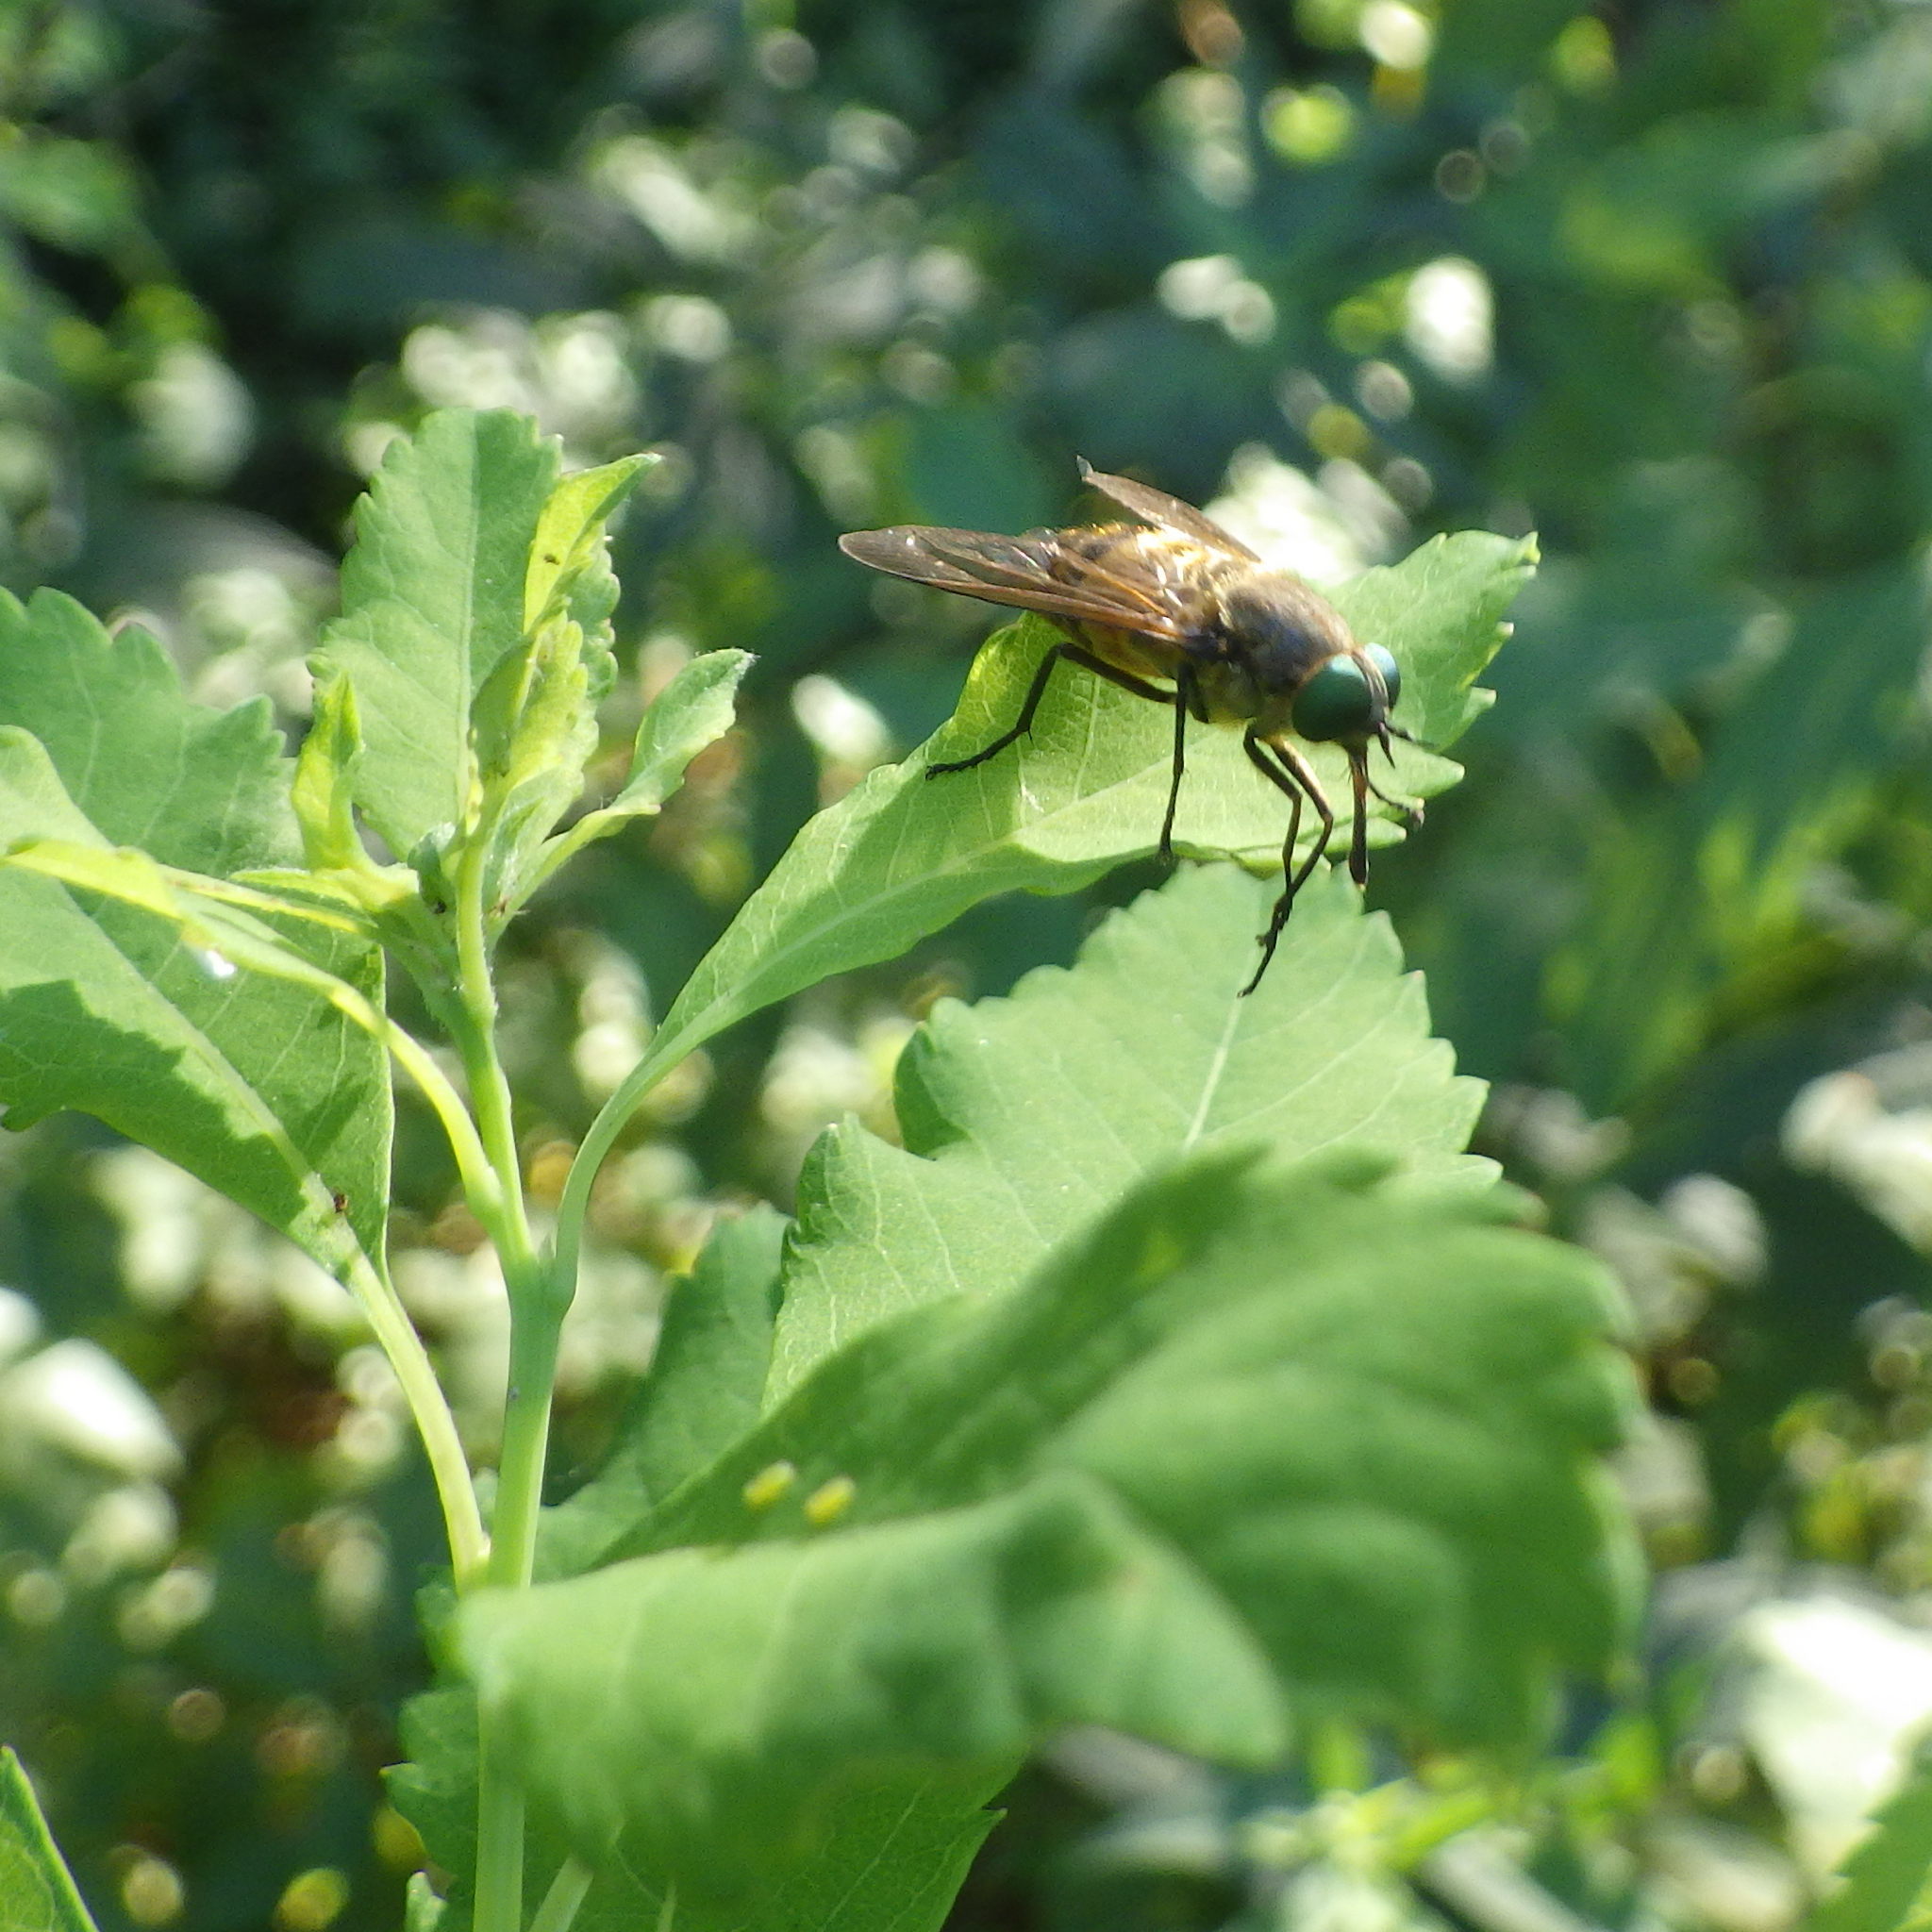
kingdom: Animalia
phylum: Arthropoda
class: Insecta
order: Diptera
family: Tabanidae
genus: Stonemyia
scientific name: Stonemyia tranquilla
